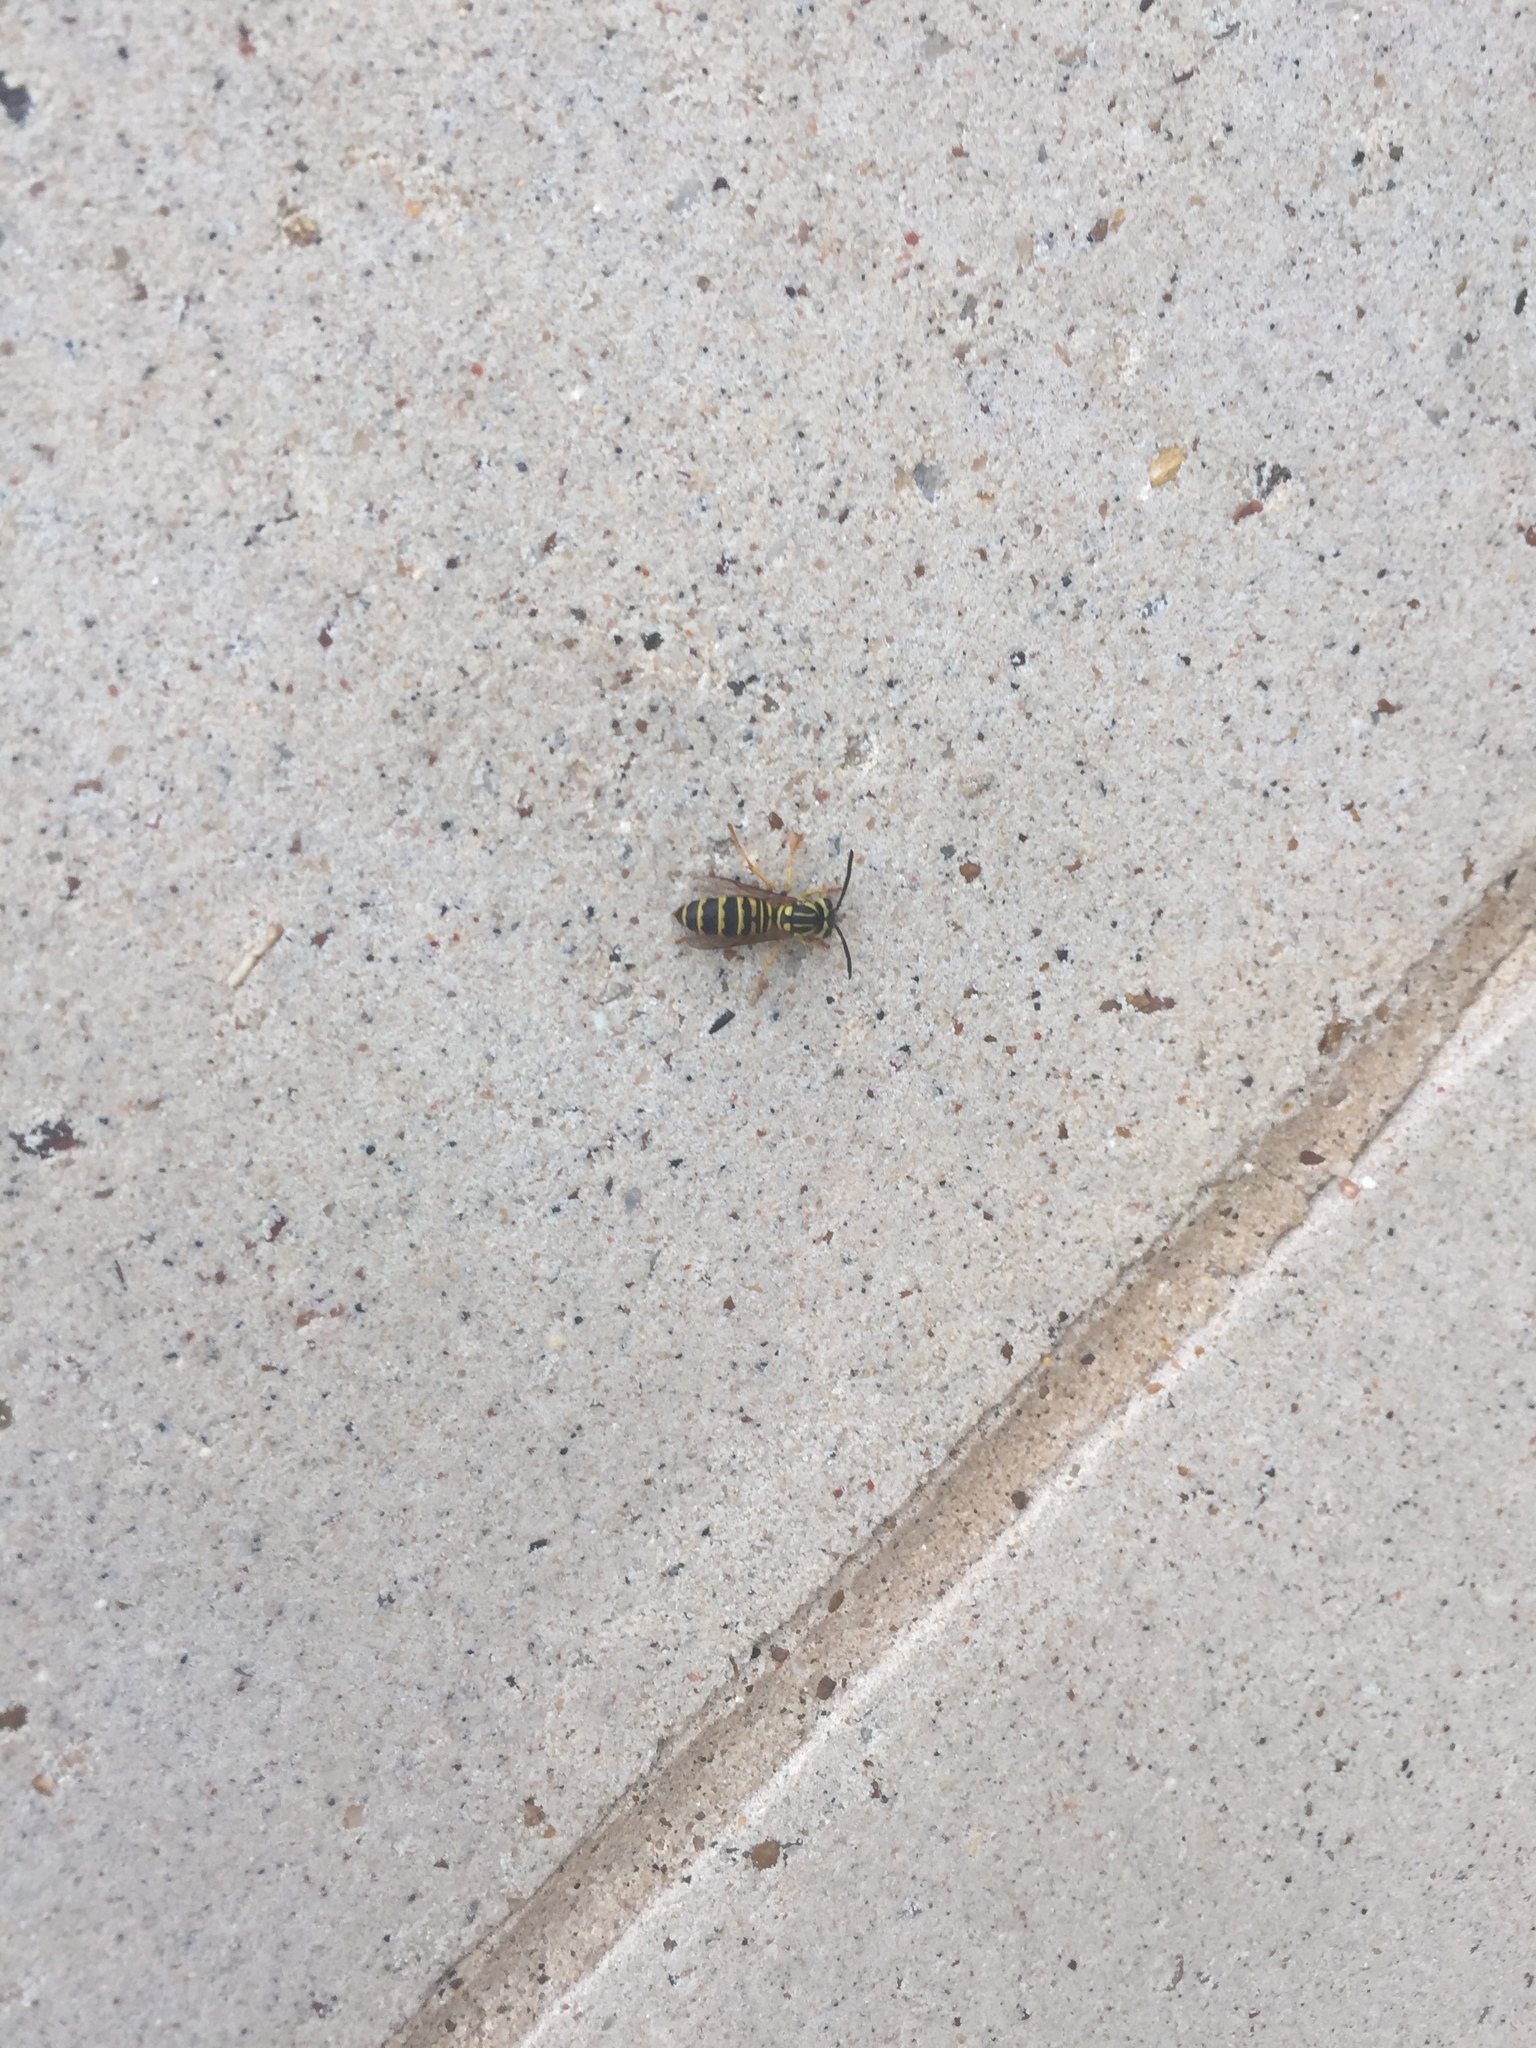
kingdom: Animalia
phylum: Arthropoda
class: Insecta
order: Hymenoptera
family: Vespidae
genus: Vespula
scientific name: Vespula squamosa
